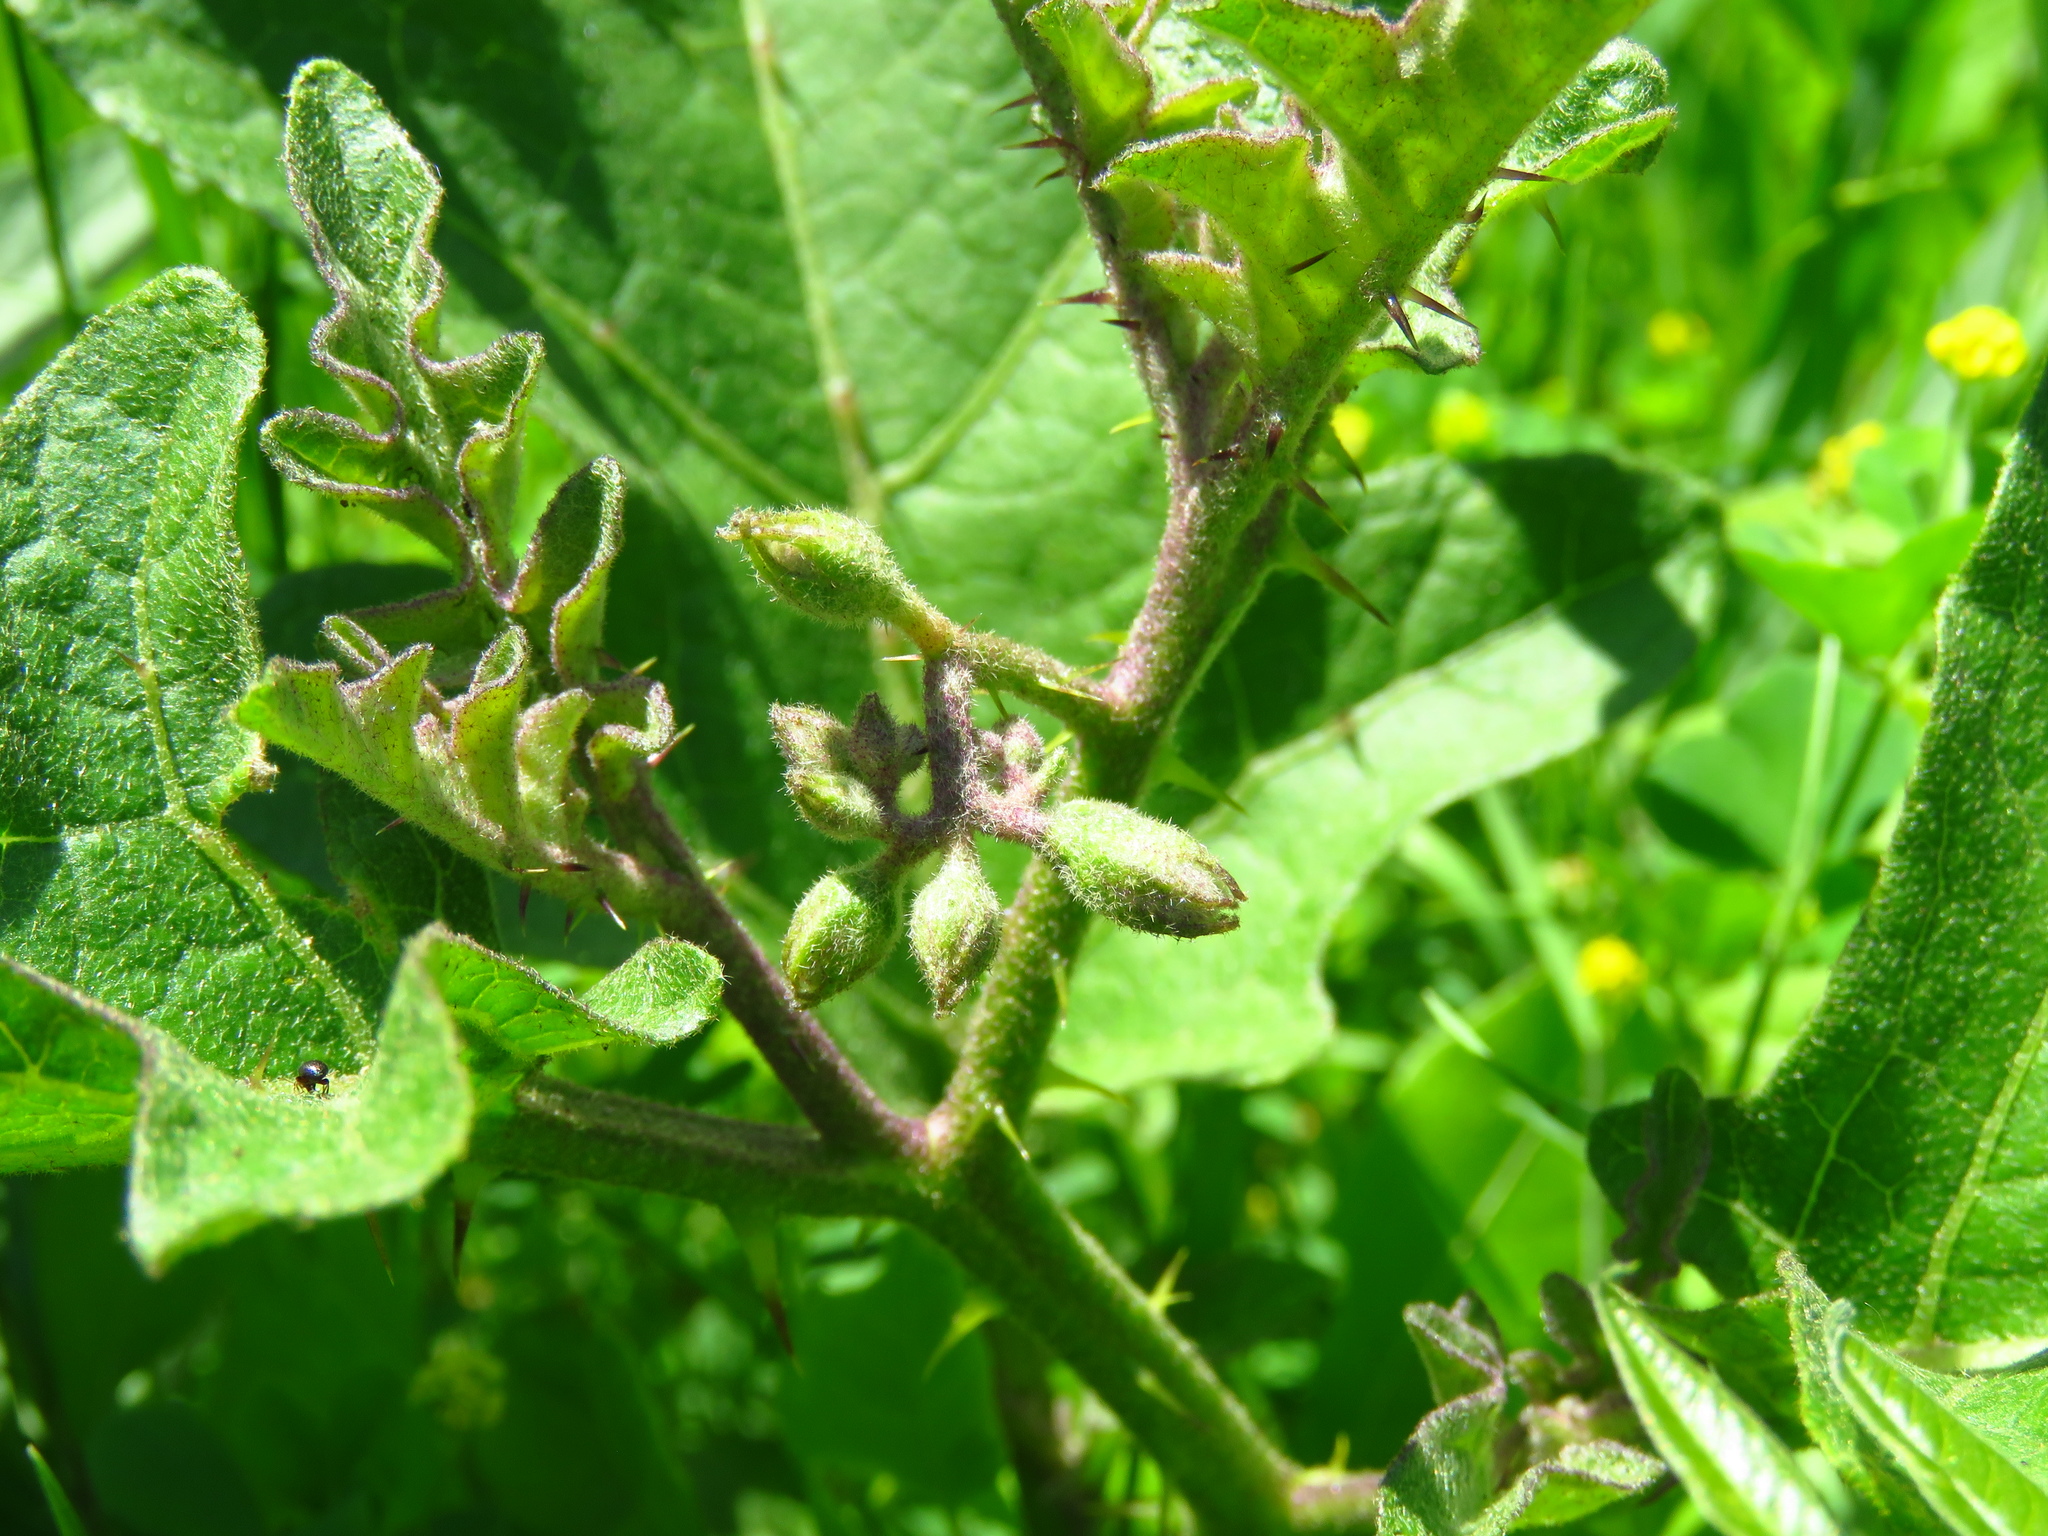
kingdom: Plantae
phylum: Tracheophyta
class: Magnoliopsida
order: Solanales
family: Solanaceae
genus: Solanum
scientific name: Solanum dimidiatum
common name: Carolina horse-nettle
